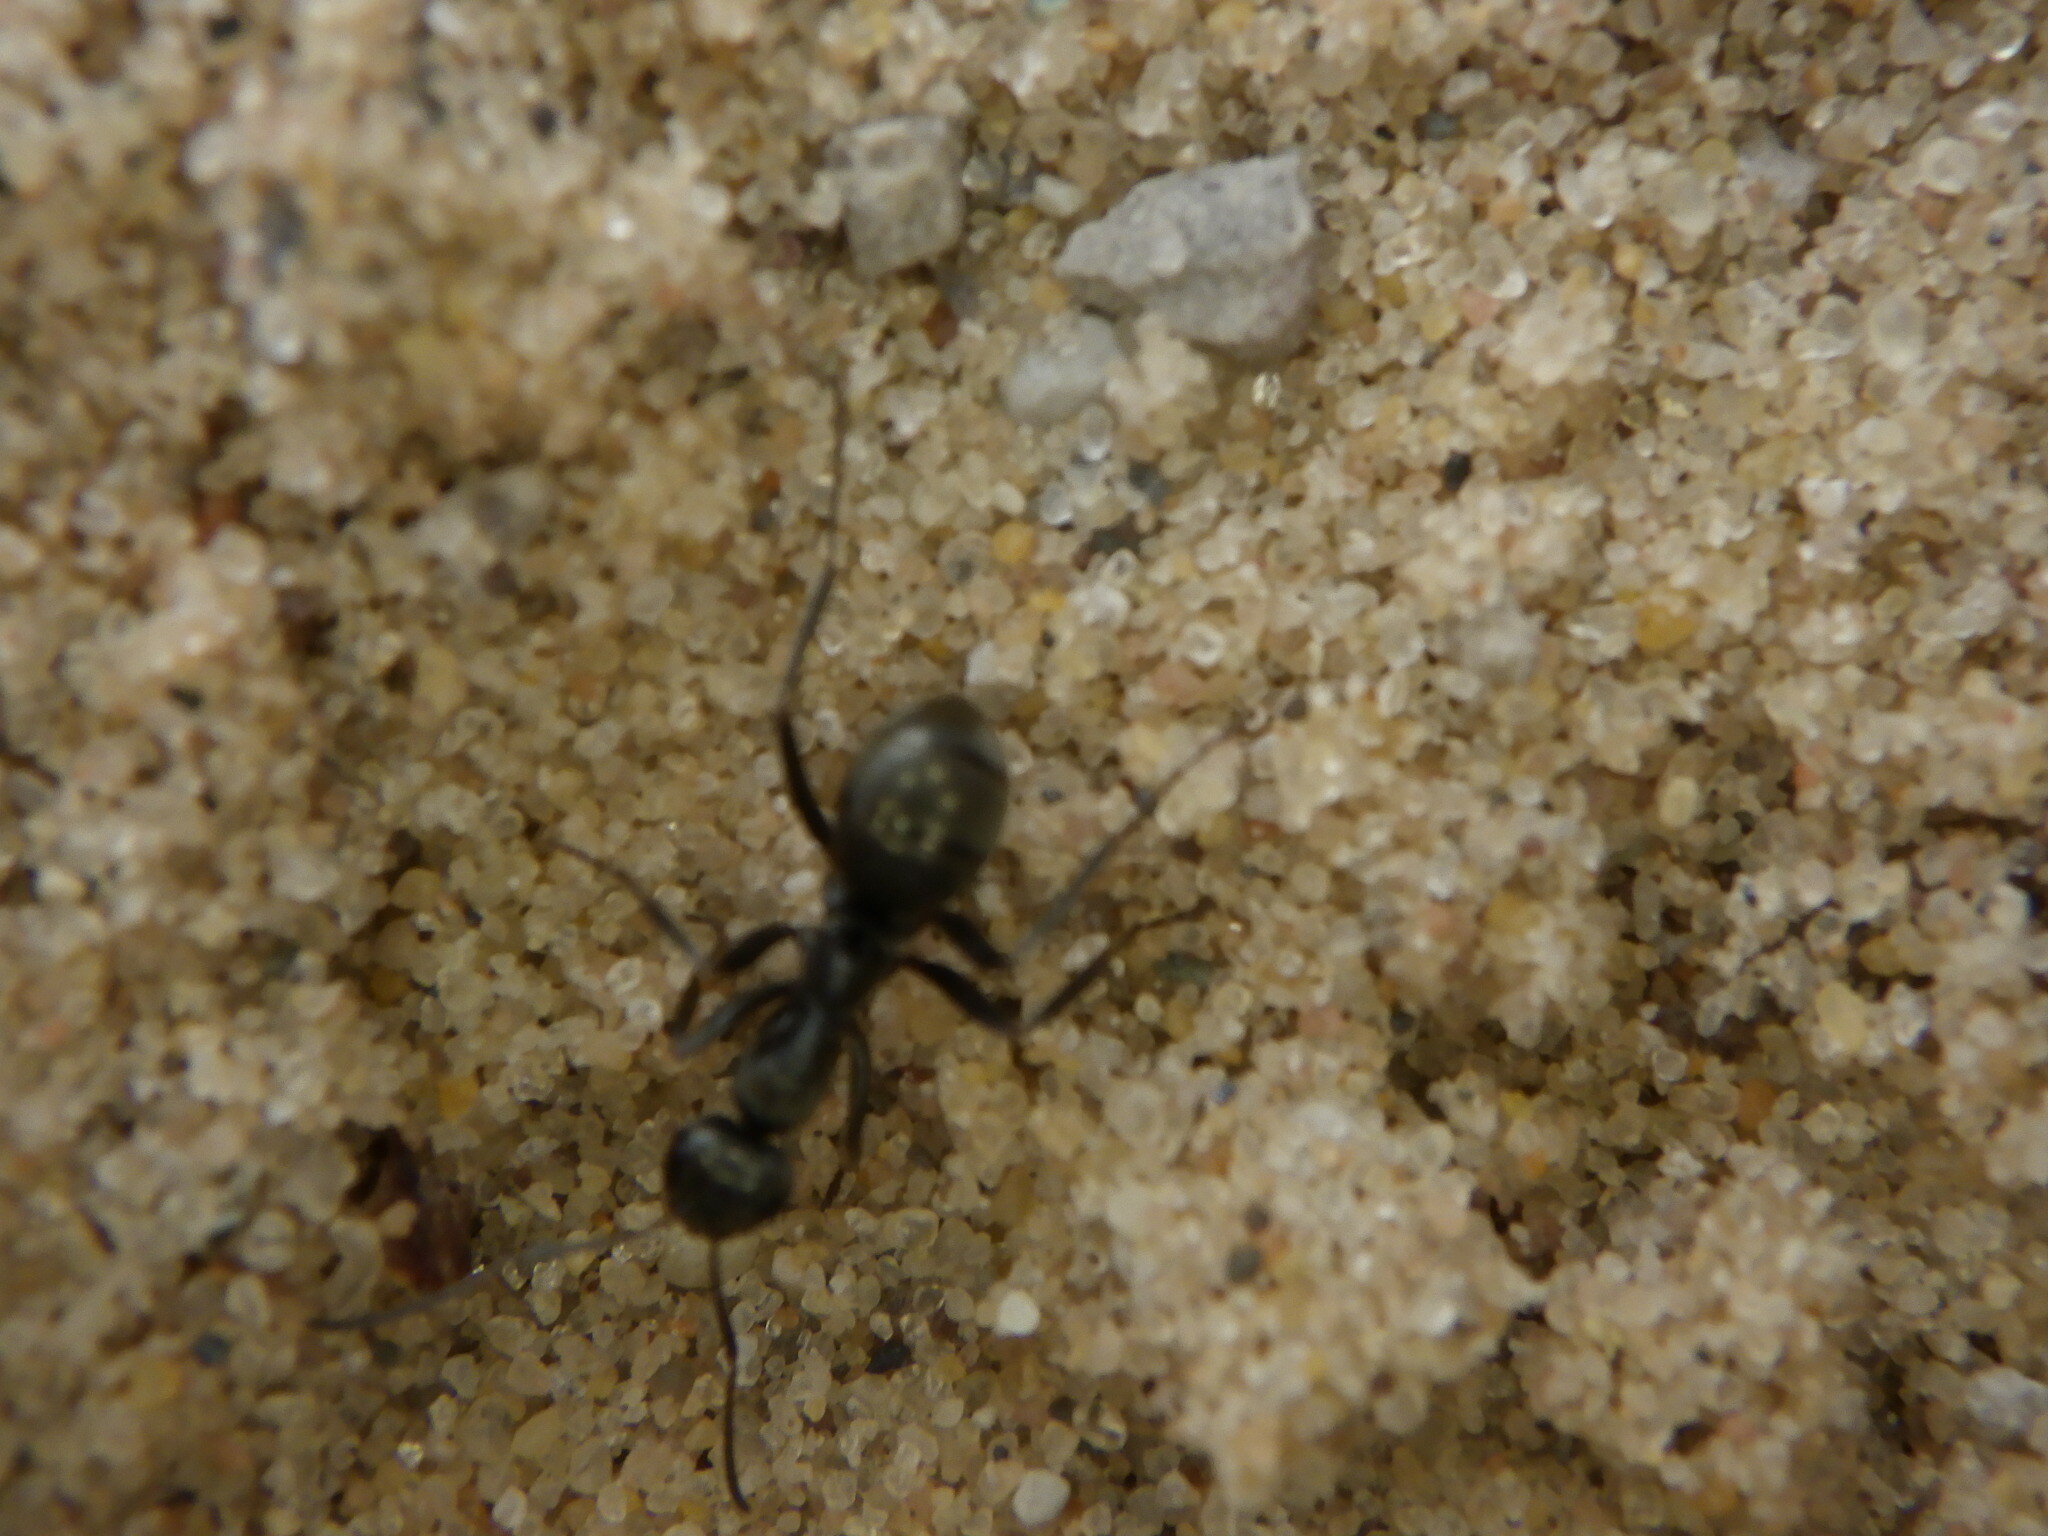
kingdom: Animalia
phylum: Arthropoda
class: Insecta
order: Hymenoptera
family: Formicidae
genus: Camponotus
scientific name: Camponotus pennsylvanicus
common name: Black carpenter ant
